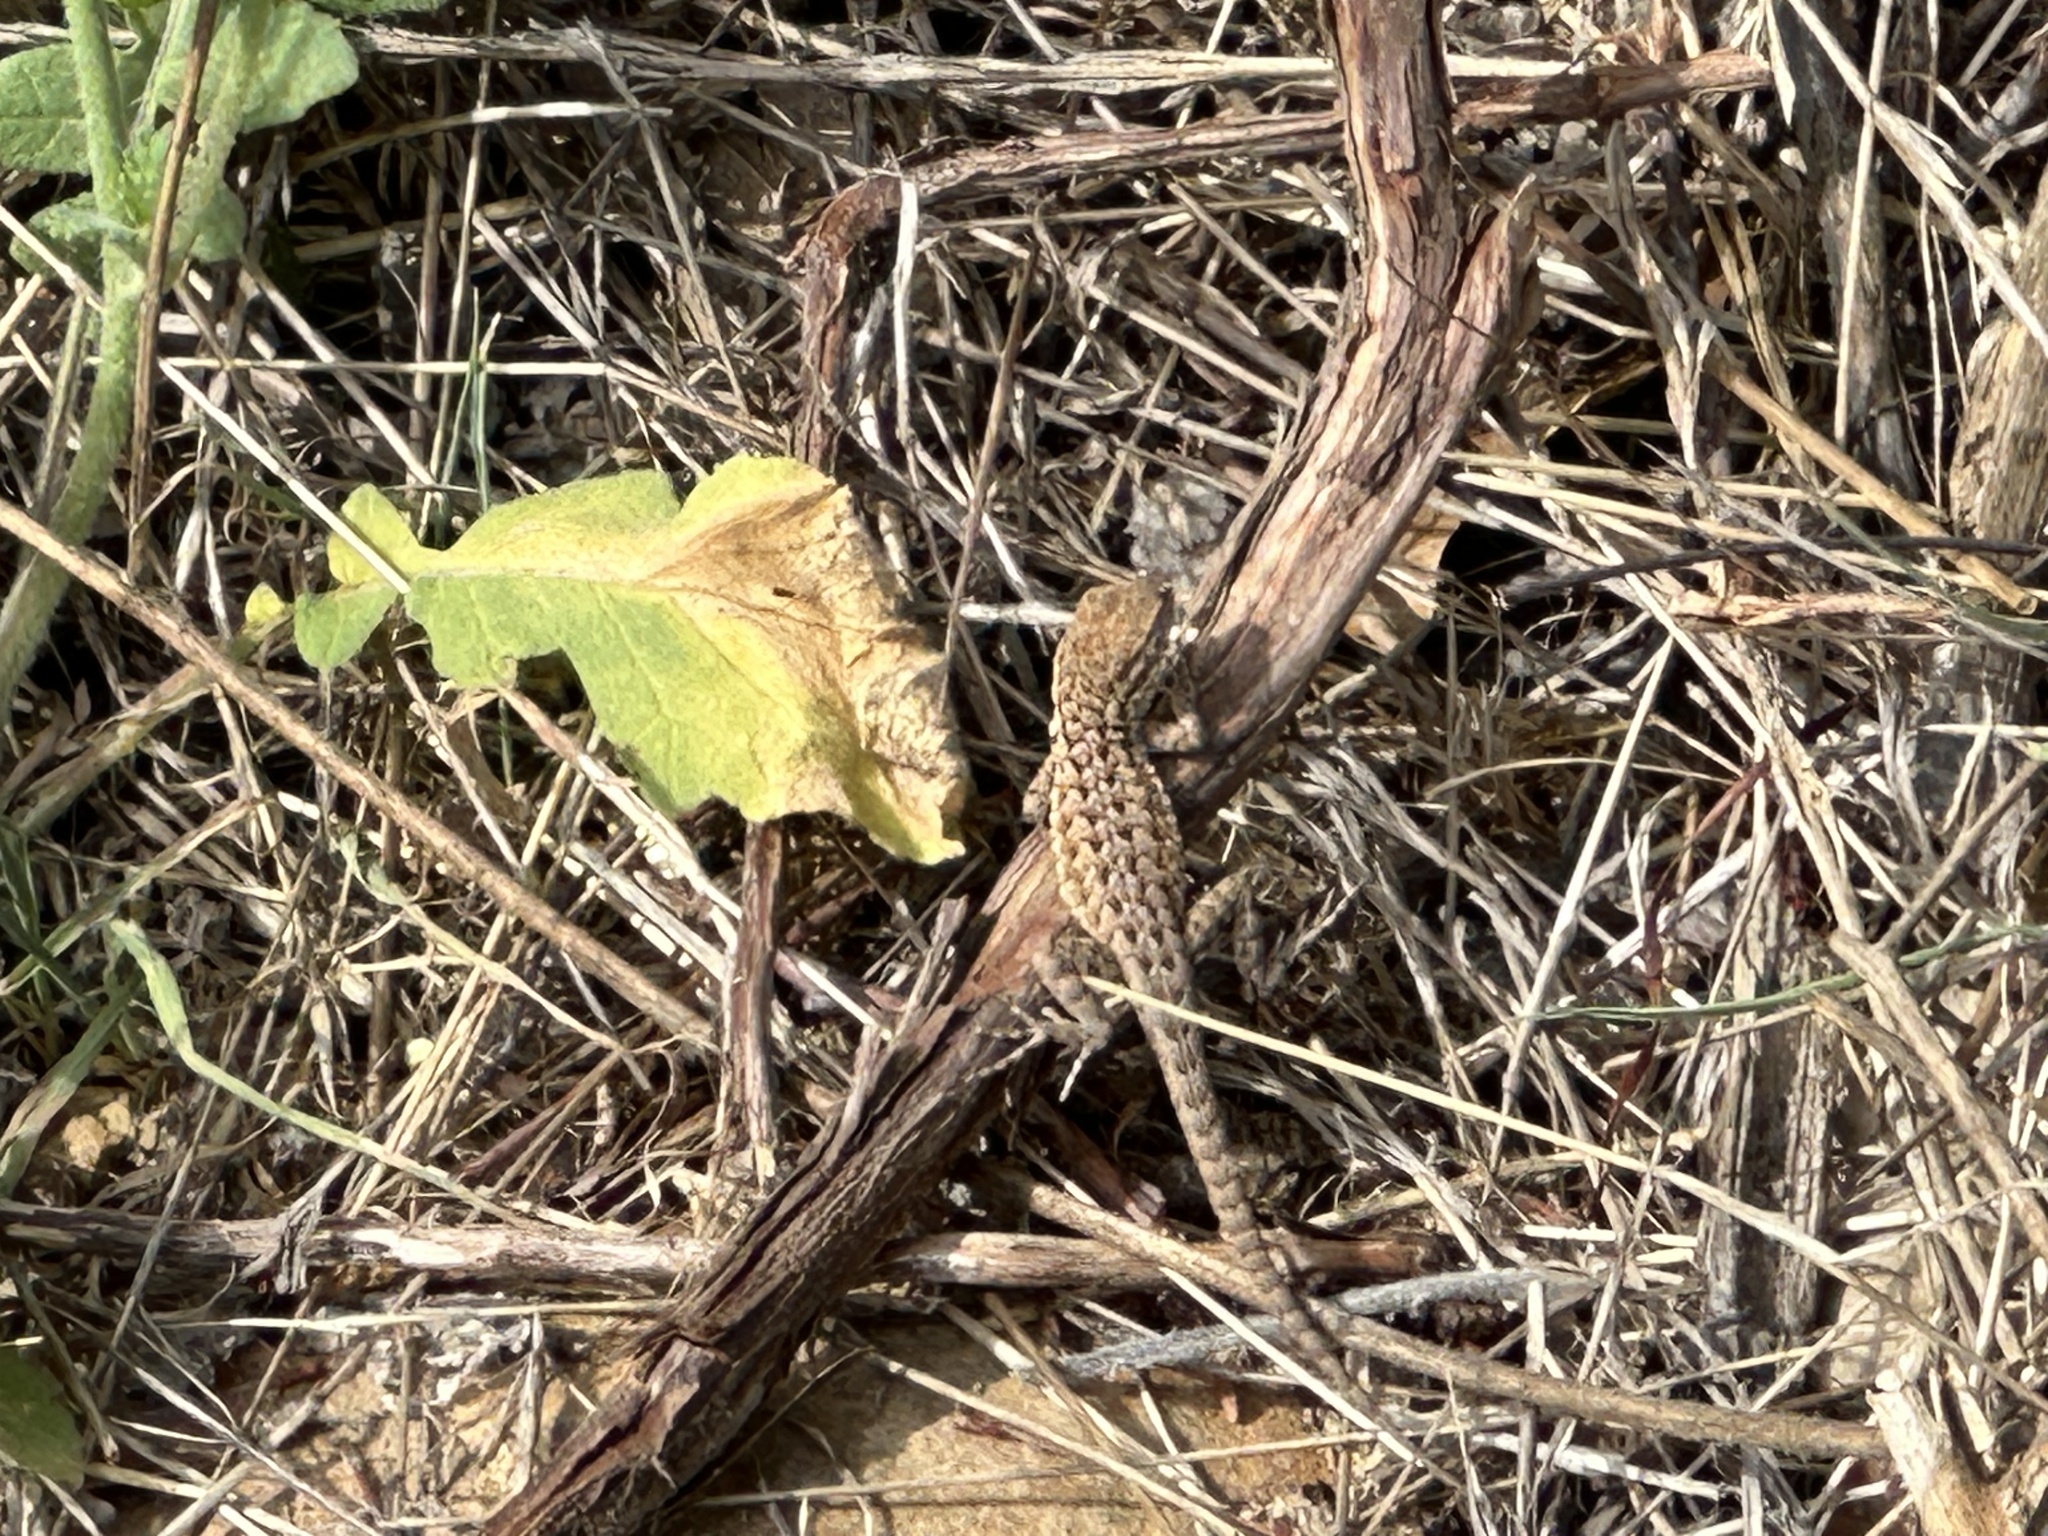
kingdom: Animalia
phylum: Chordata
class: Squamata
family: Phrynosomatidae
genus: Uta
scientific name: Uta stansburiana
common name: Side-blotched lizard
